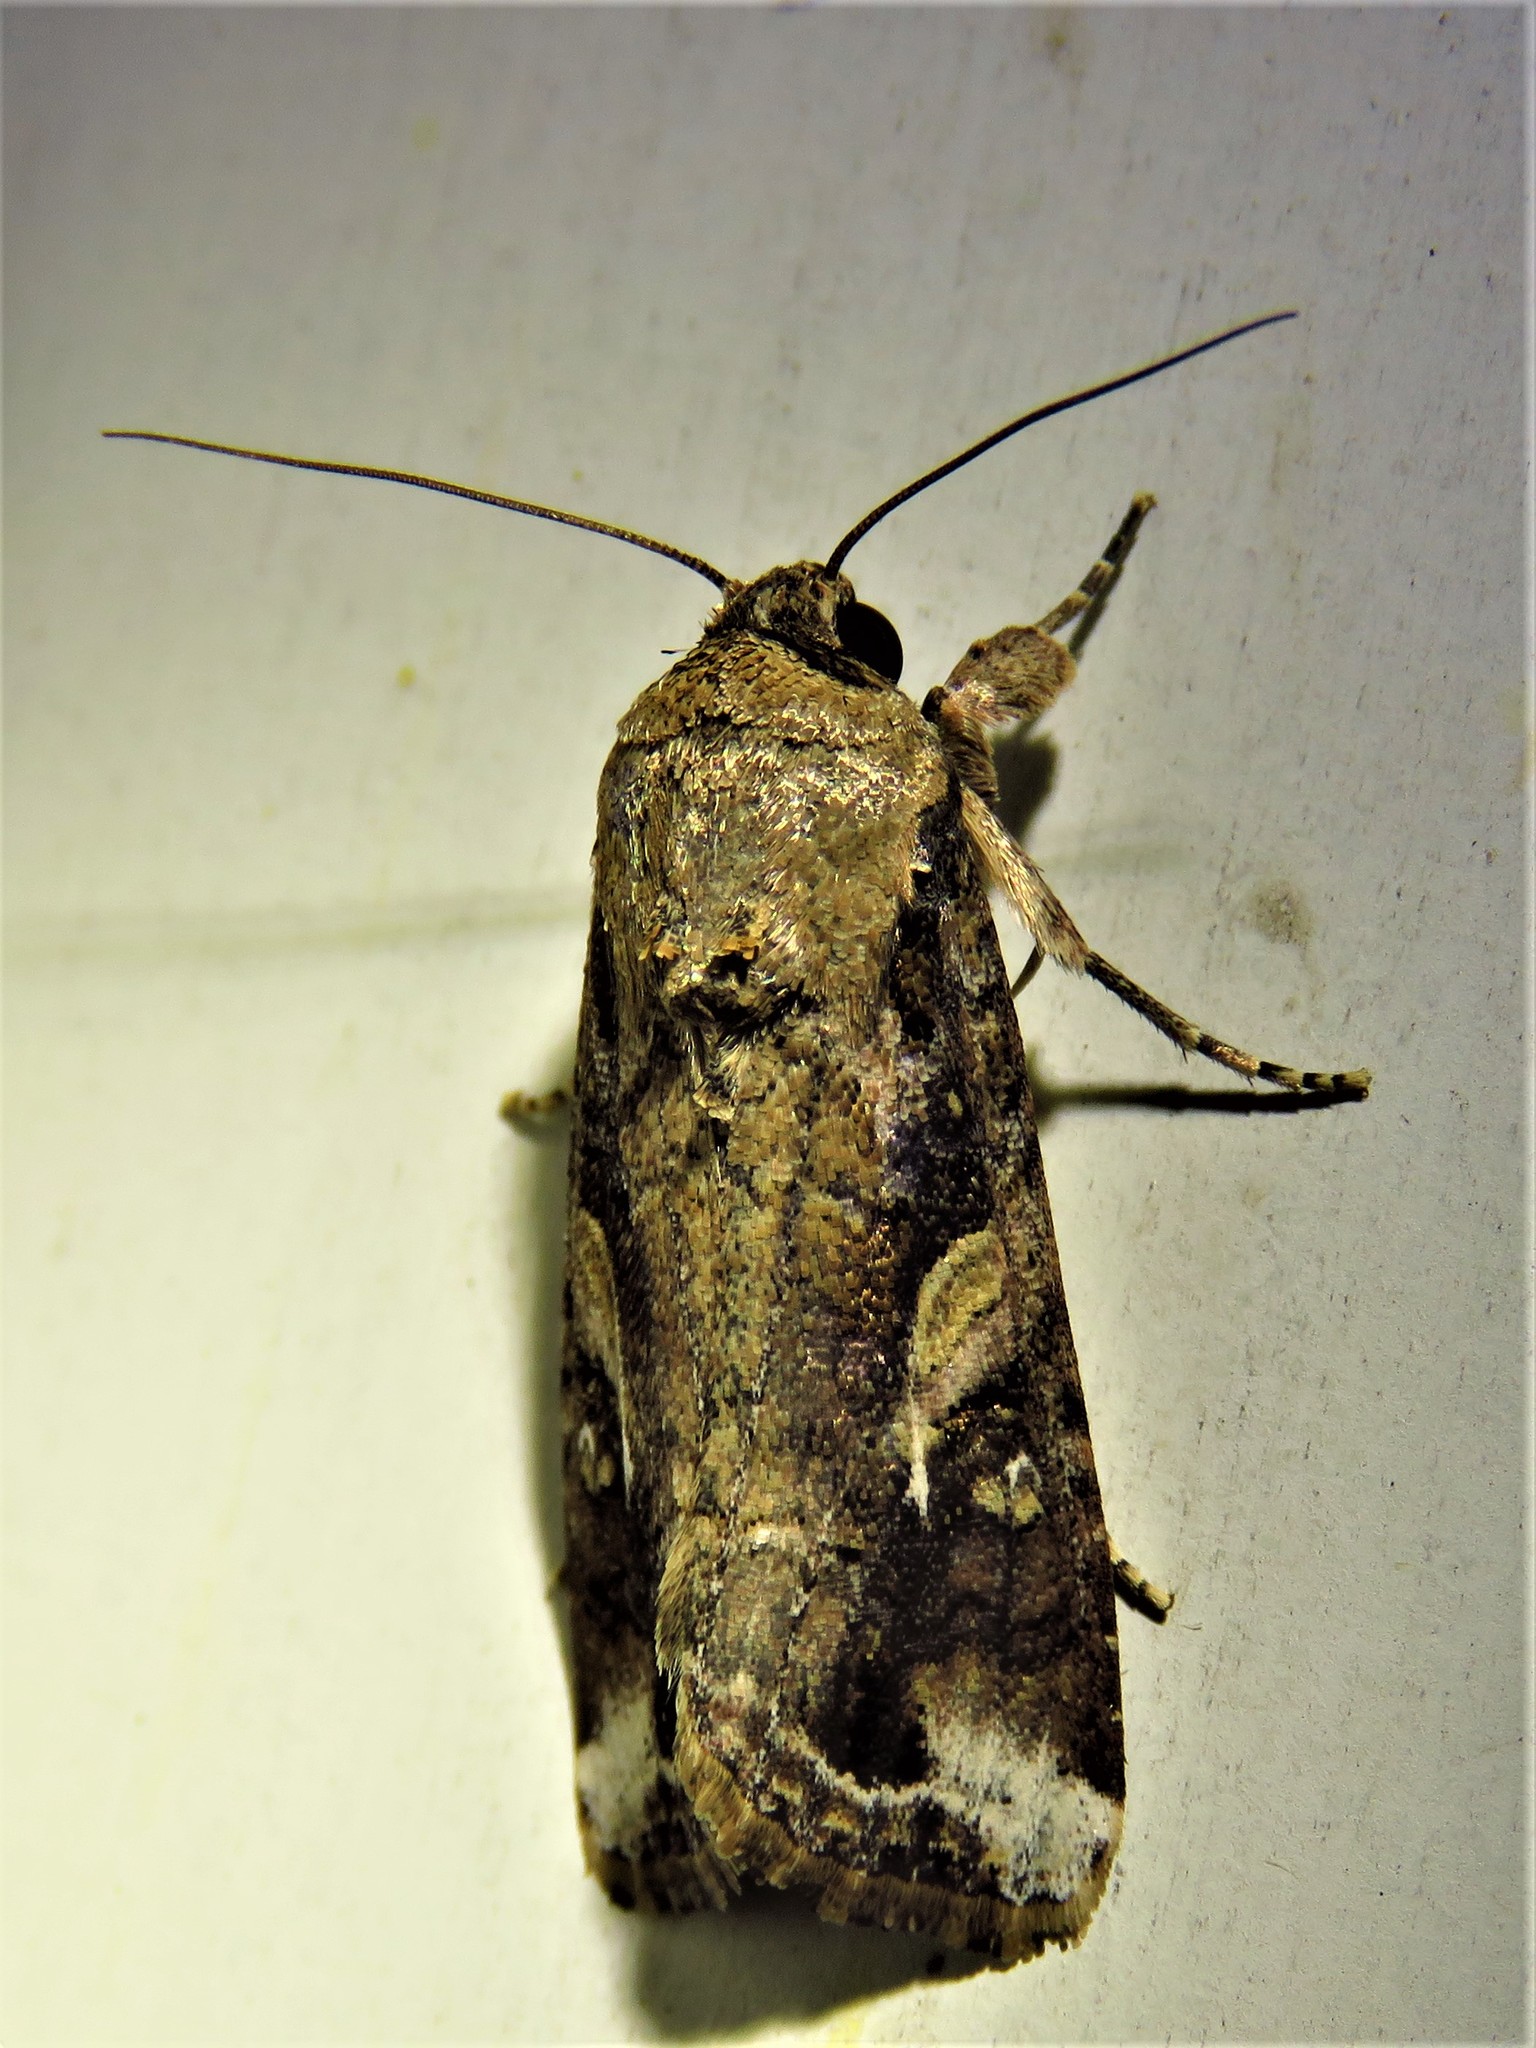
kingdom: Animalia
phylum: Arthropoda
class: Insecta
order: Lepidoptera
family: Noctuidae
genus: Spodoptera
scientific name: Spodoptera ornithogalli
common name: Yellow-striped armyworm
